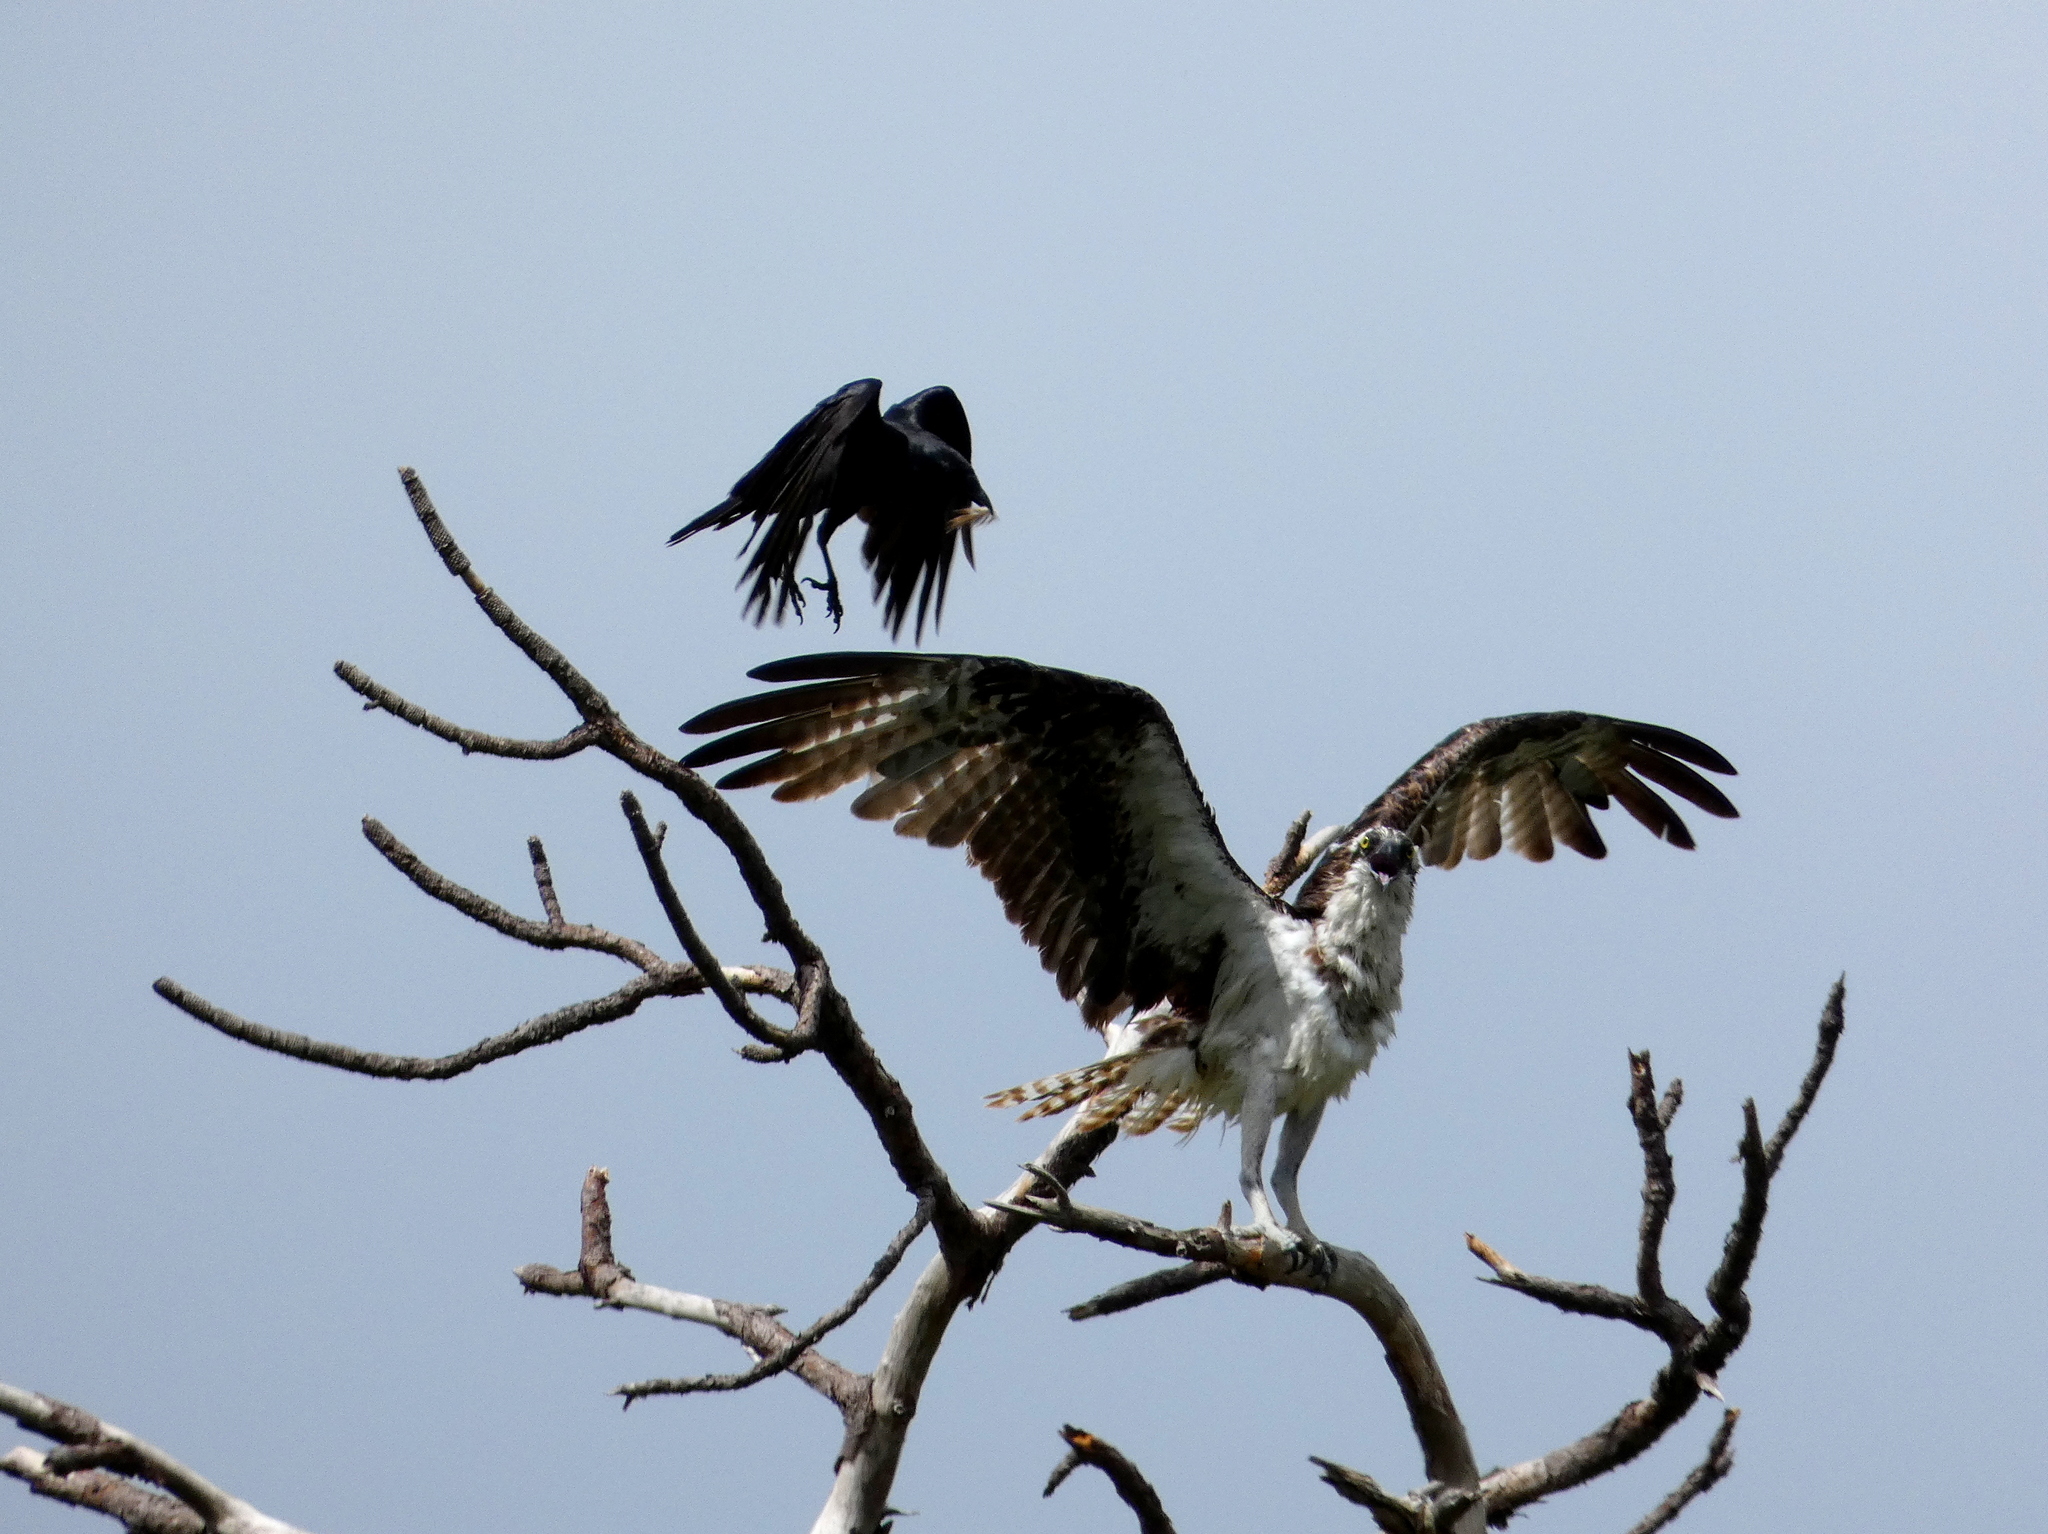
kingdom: Animalia
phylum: Chordata
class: Aves
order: Accipitriformes
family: Pandionidae
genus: Pandion
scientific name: Pandion haliaetus
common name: Osprey
